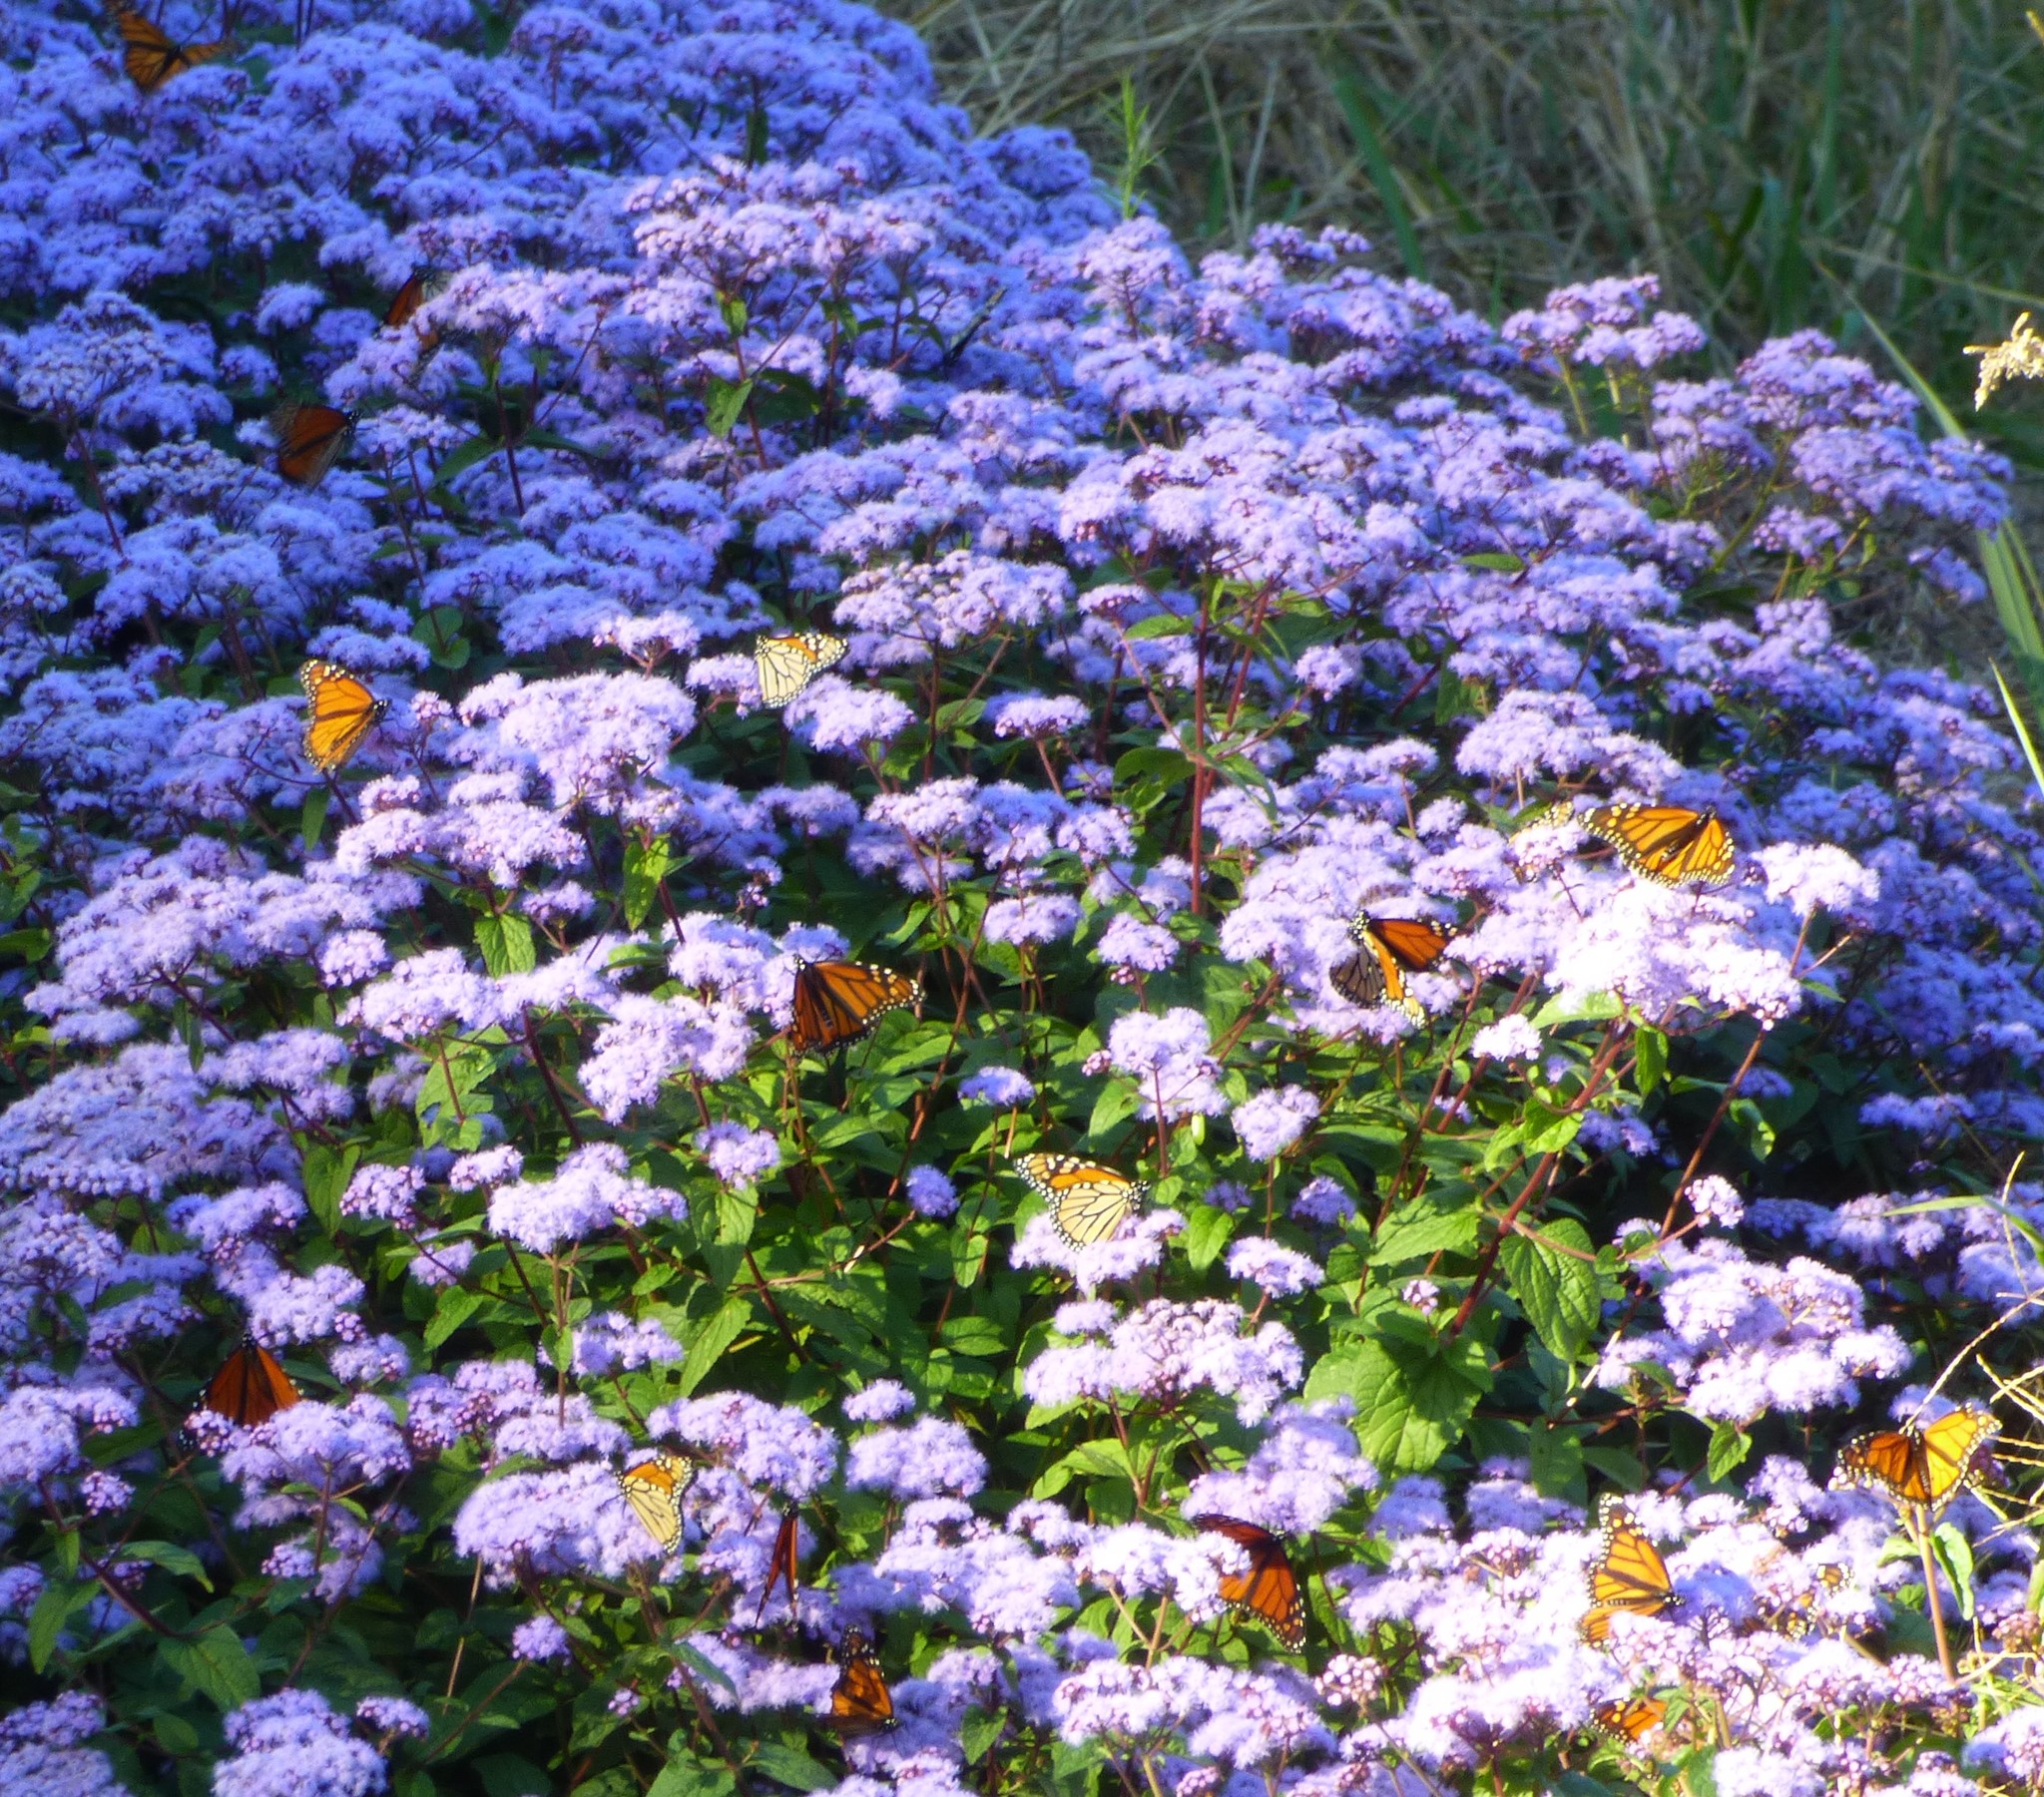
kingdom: Animalia
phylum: Arthropoda
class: Insecta
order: Lepidoptera
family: Nymphalidae
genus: Danaus
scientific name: Danaus plexippus
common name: Monarch
